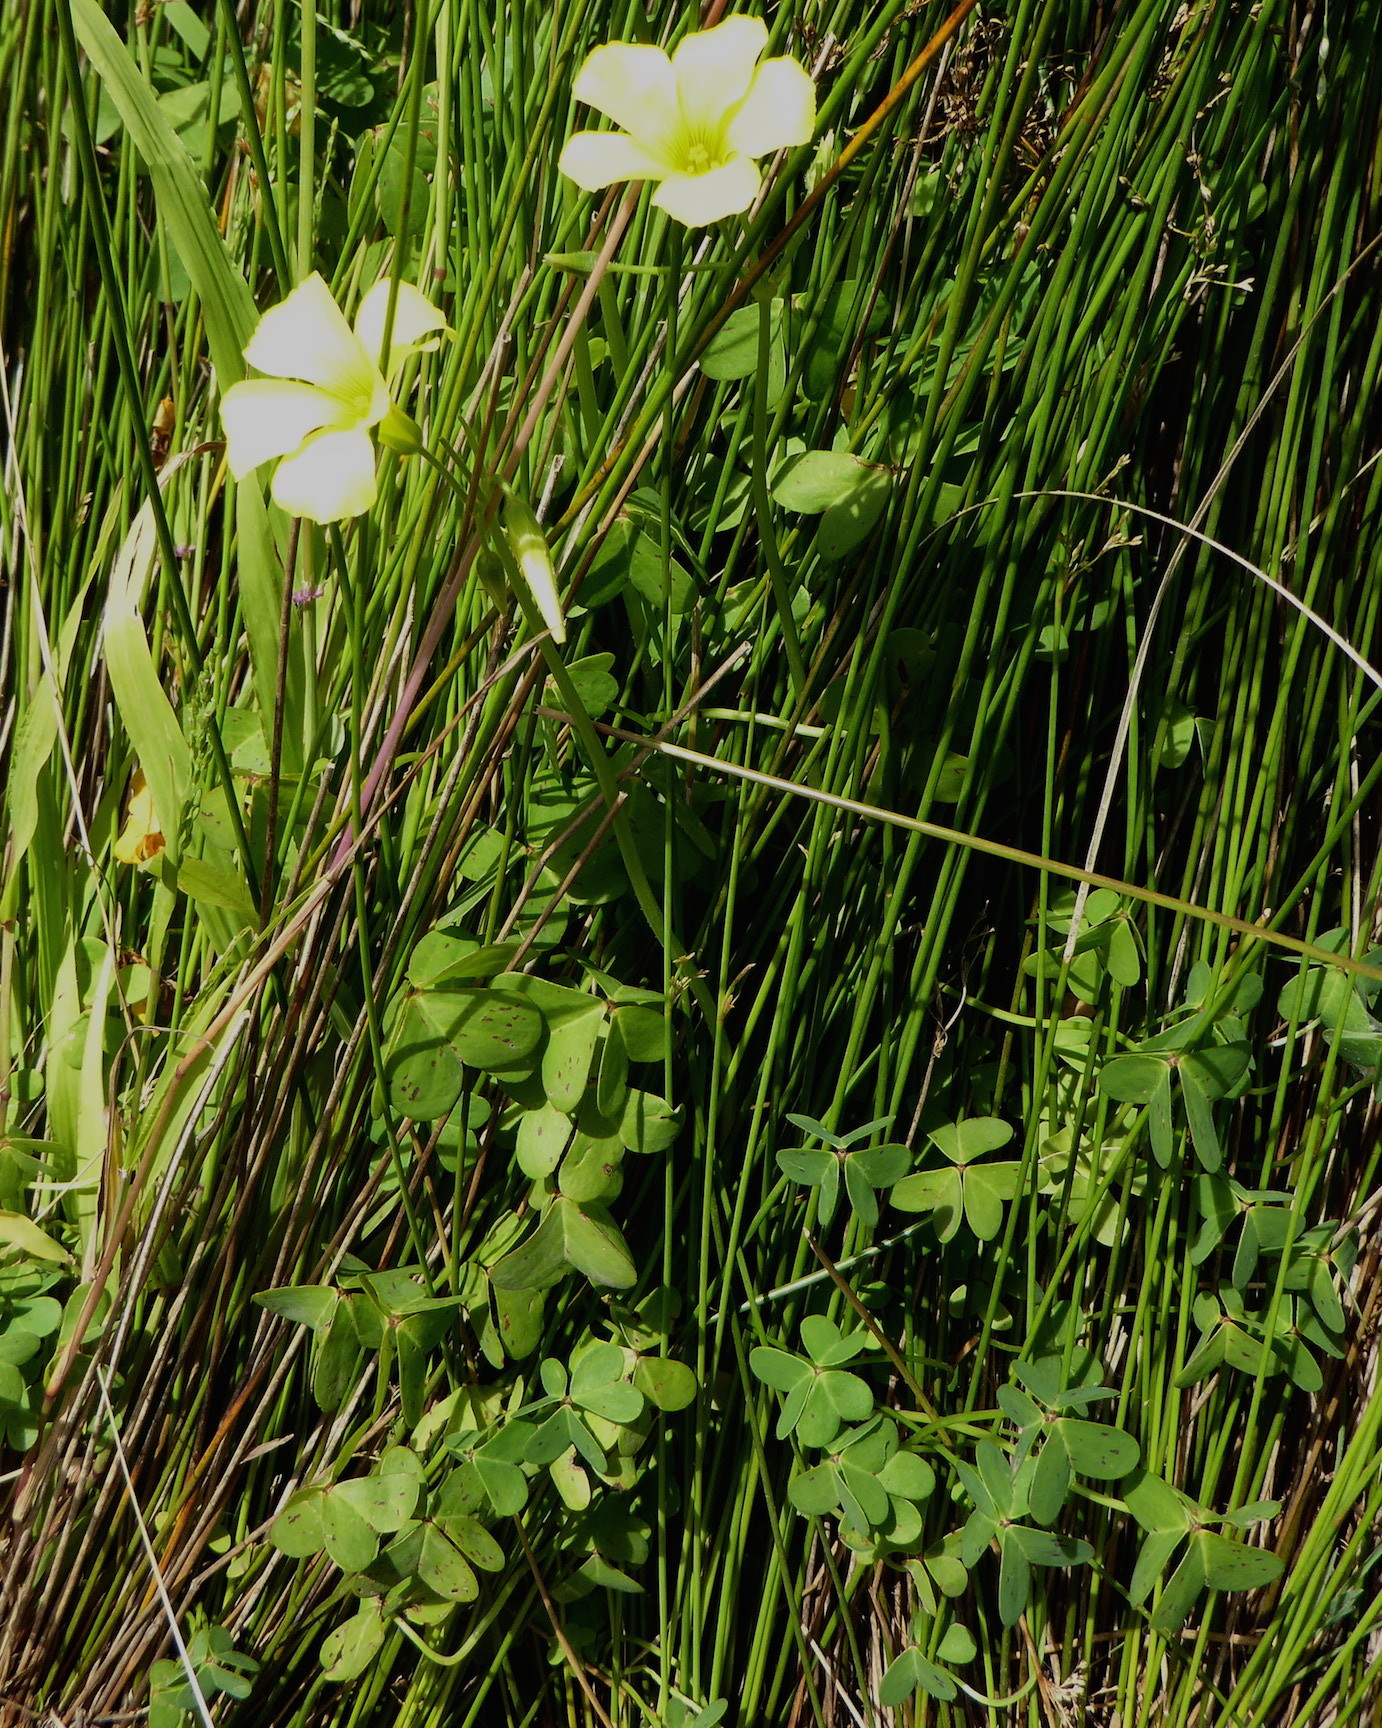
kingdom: Plantae
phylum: Tracheophyta
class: Magnoliopsida
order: Oxalidales
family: Oxalidaceae
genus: Oxalis
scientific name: Oxalis pes-caprae
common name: Bermuda-buttercup
